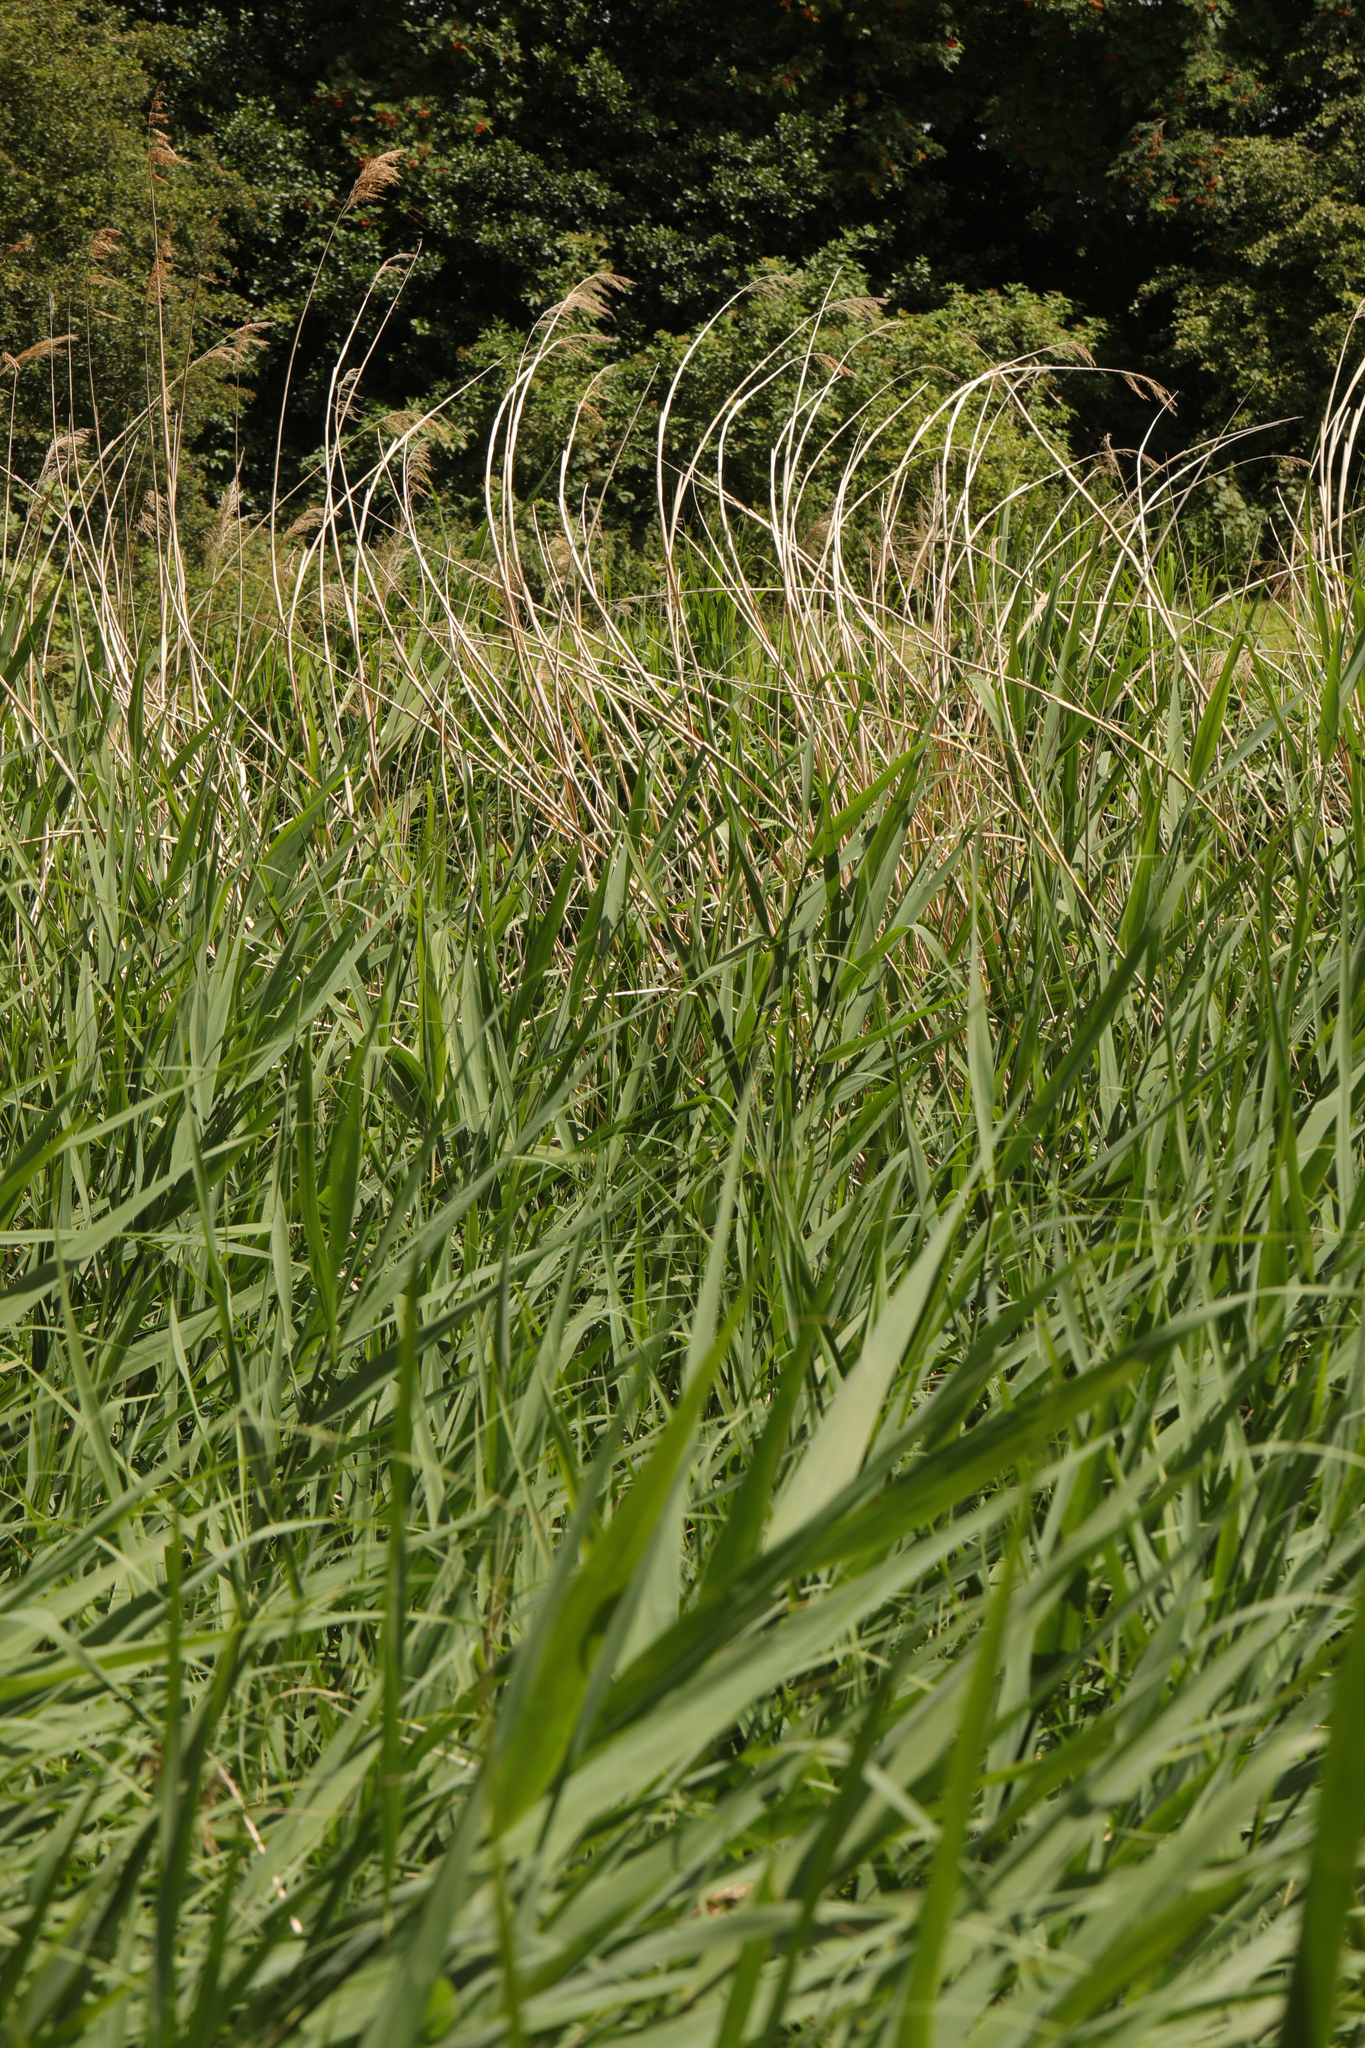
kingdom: Plantae
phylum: Tracheophyta
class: Liliopsida
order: Poales
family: Poaceae
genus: Phragmites
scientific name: Phragmites australis
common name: Common reed
